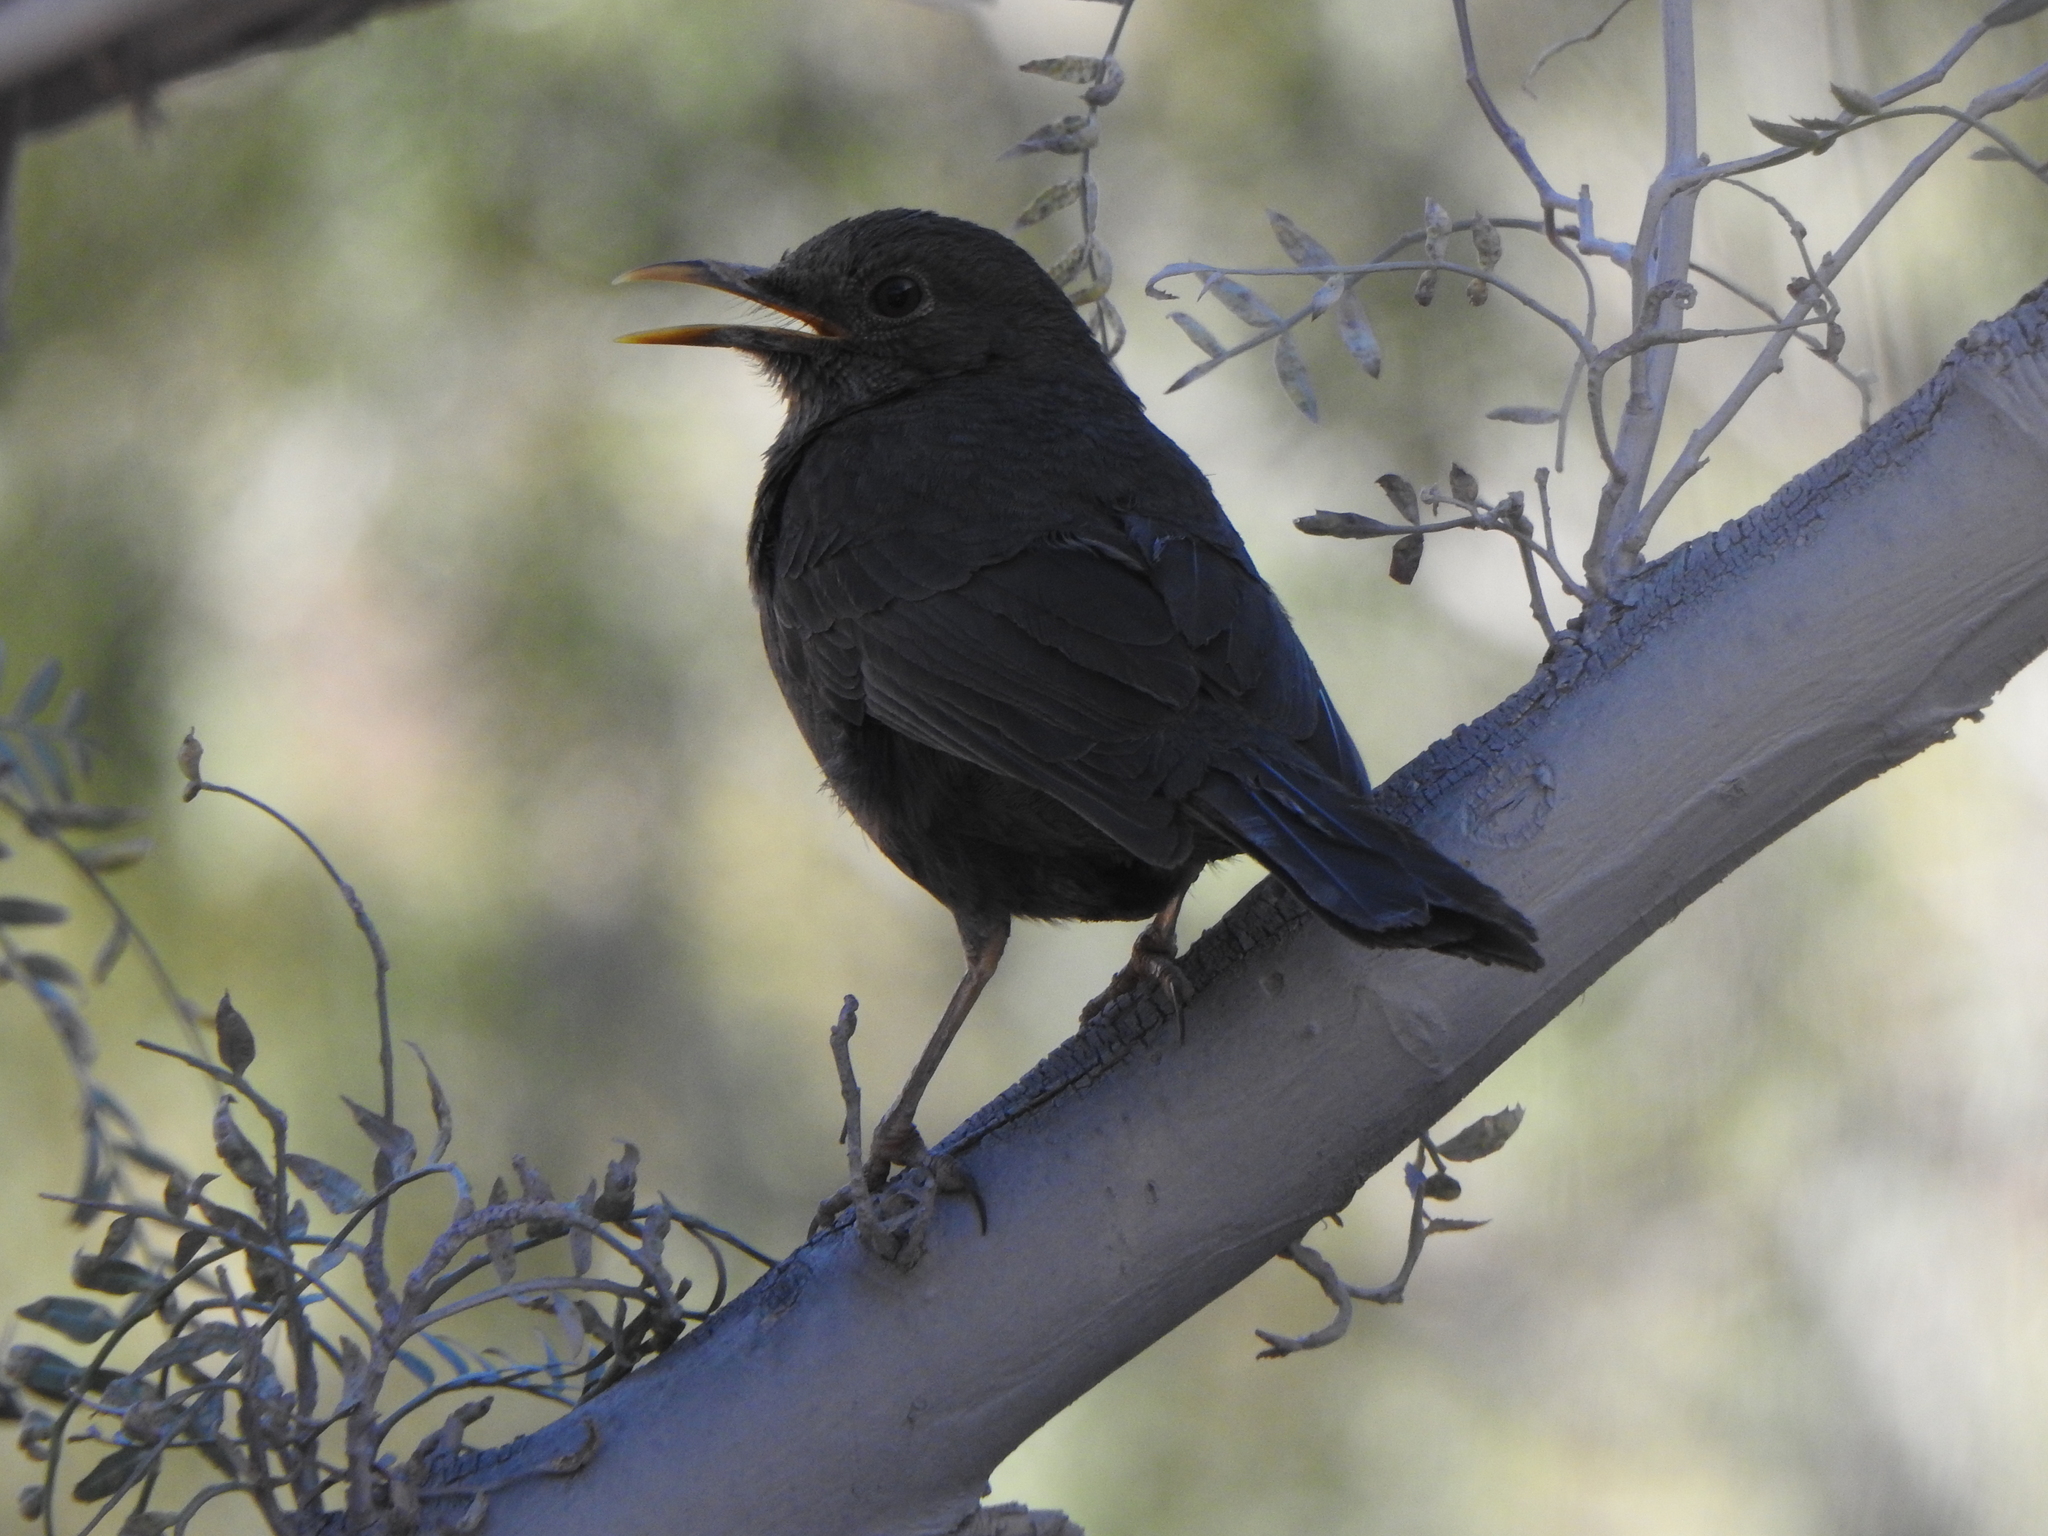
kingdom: Animalia
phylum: Chordata
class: Aves
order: Passeriformes
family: Turdidae
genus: Turdus
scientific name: Turdus chiguanco
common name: Chiguanco thrush
